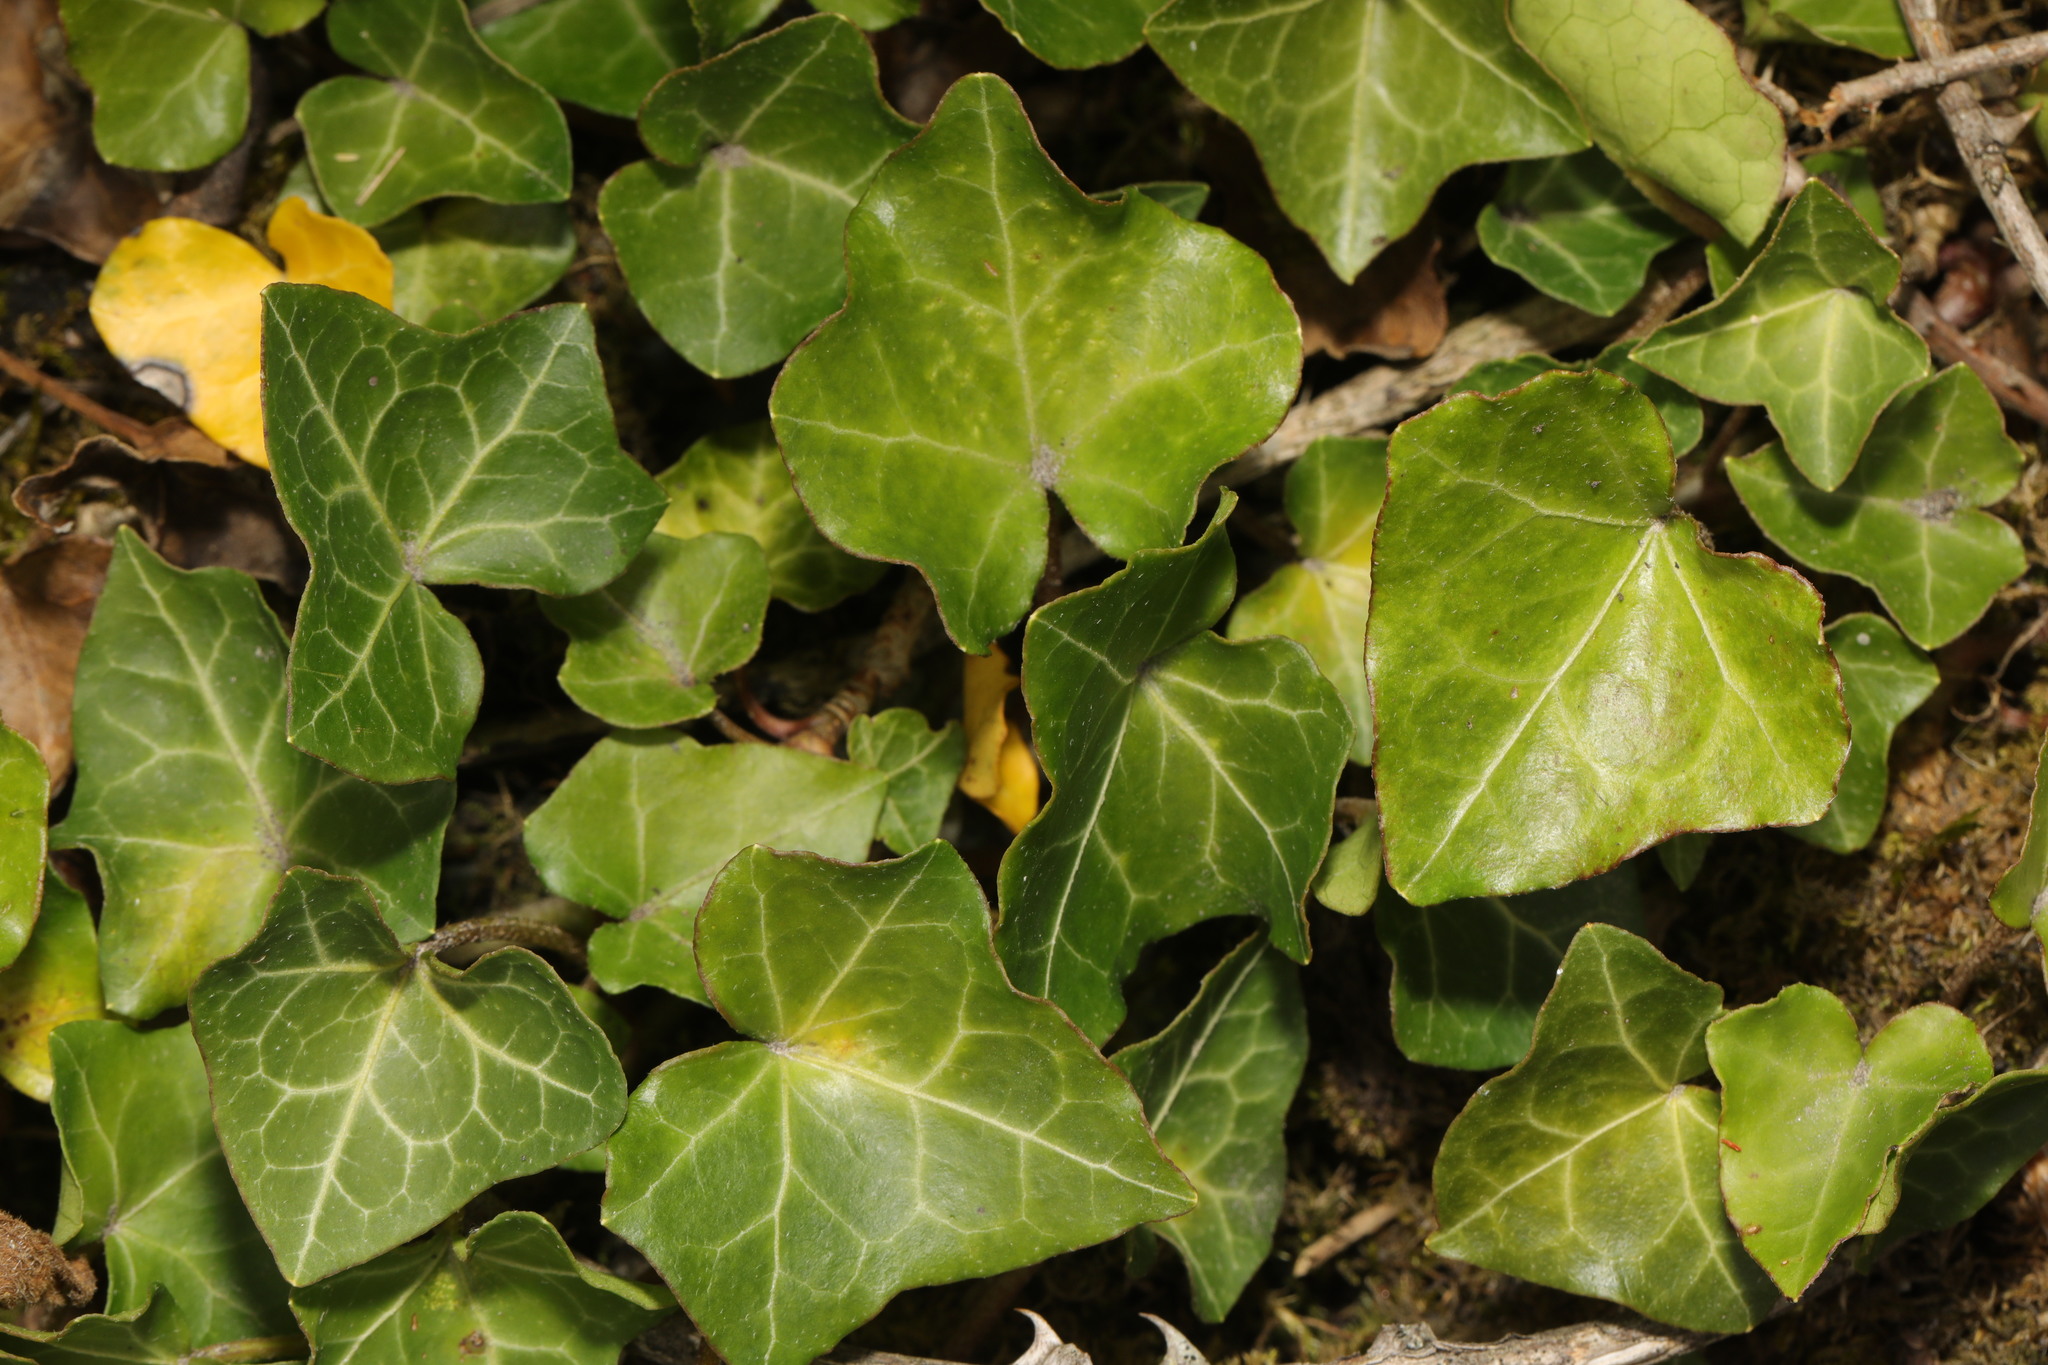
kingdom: Plantae
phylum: Tracheophyta
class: Magnoliopsida
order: Apiales
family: Araliaceae
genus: Hedera
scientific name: Hedera helix
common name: Ivy
